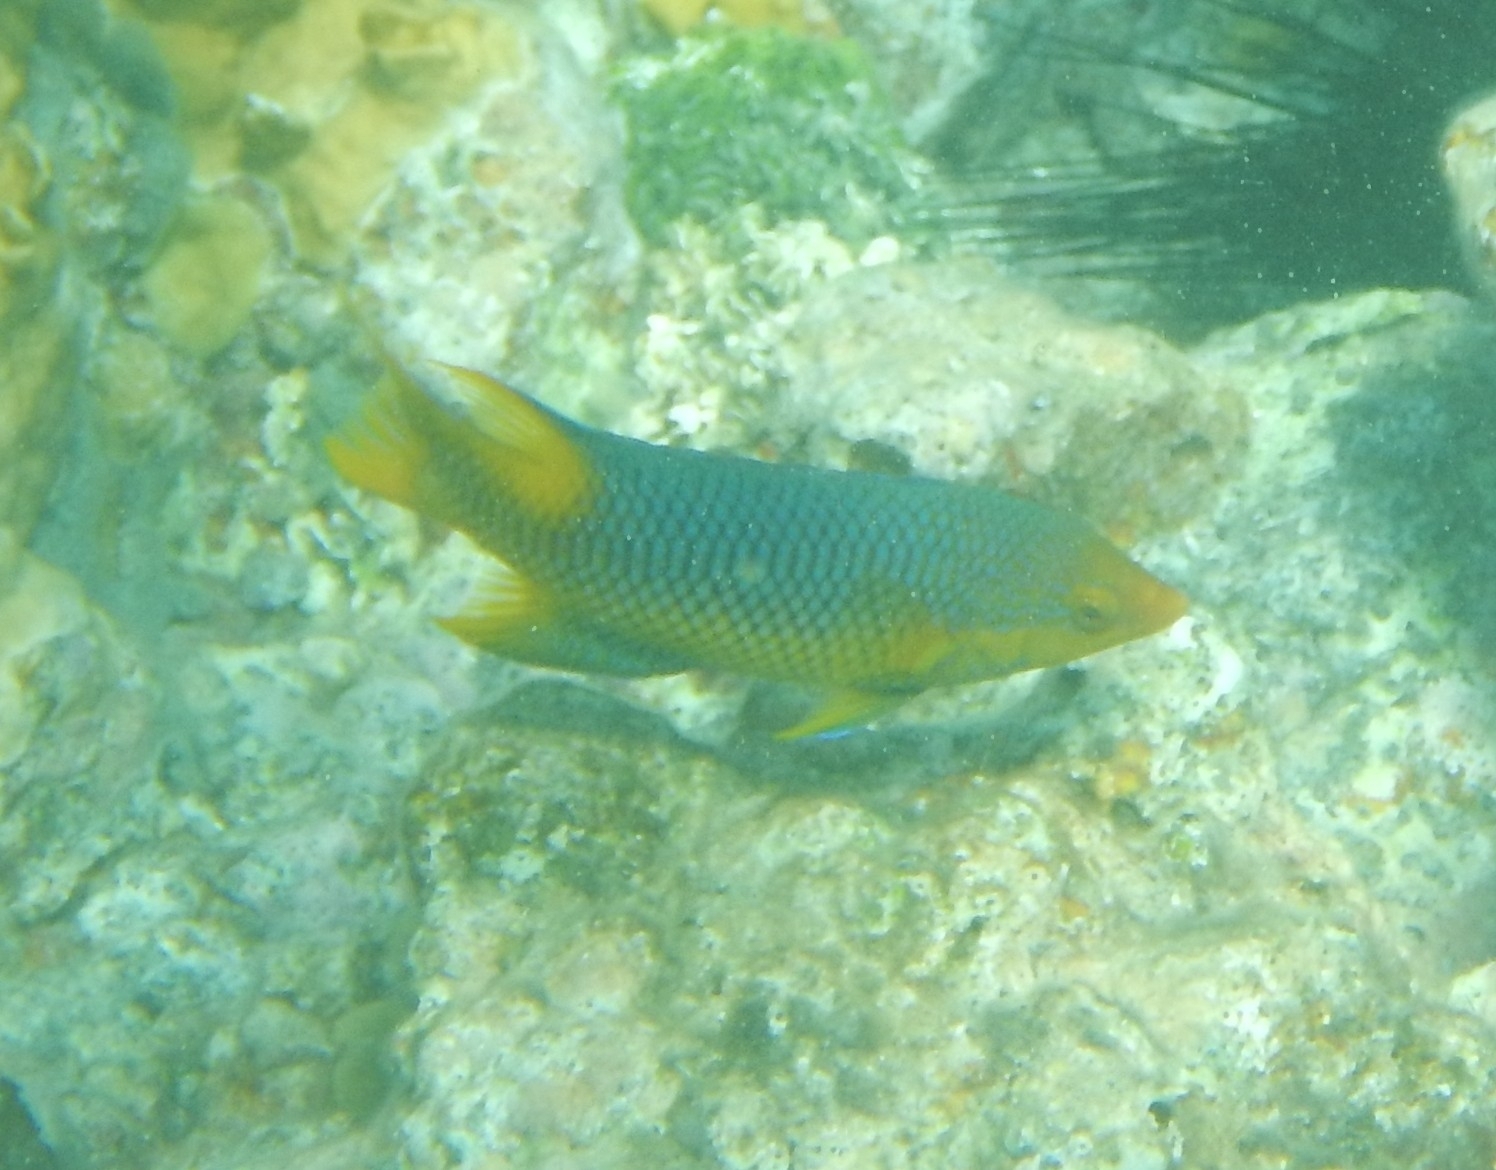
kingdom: Animalia
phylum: Chordata
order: Perciformes
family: Labridae
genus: Bodianus
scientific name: Bodianus rufus
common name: Spanish hogfish
